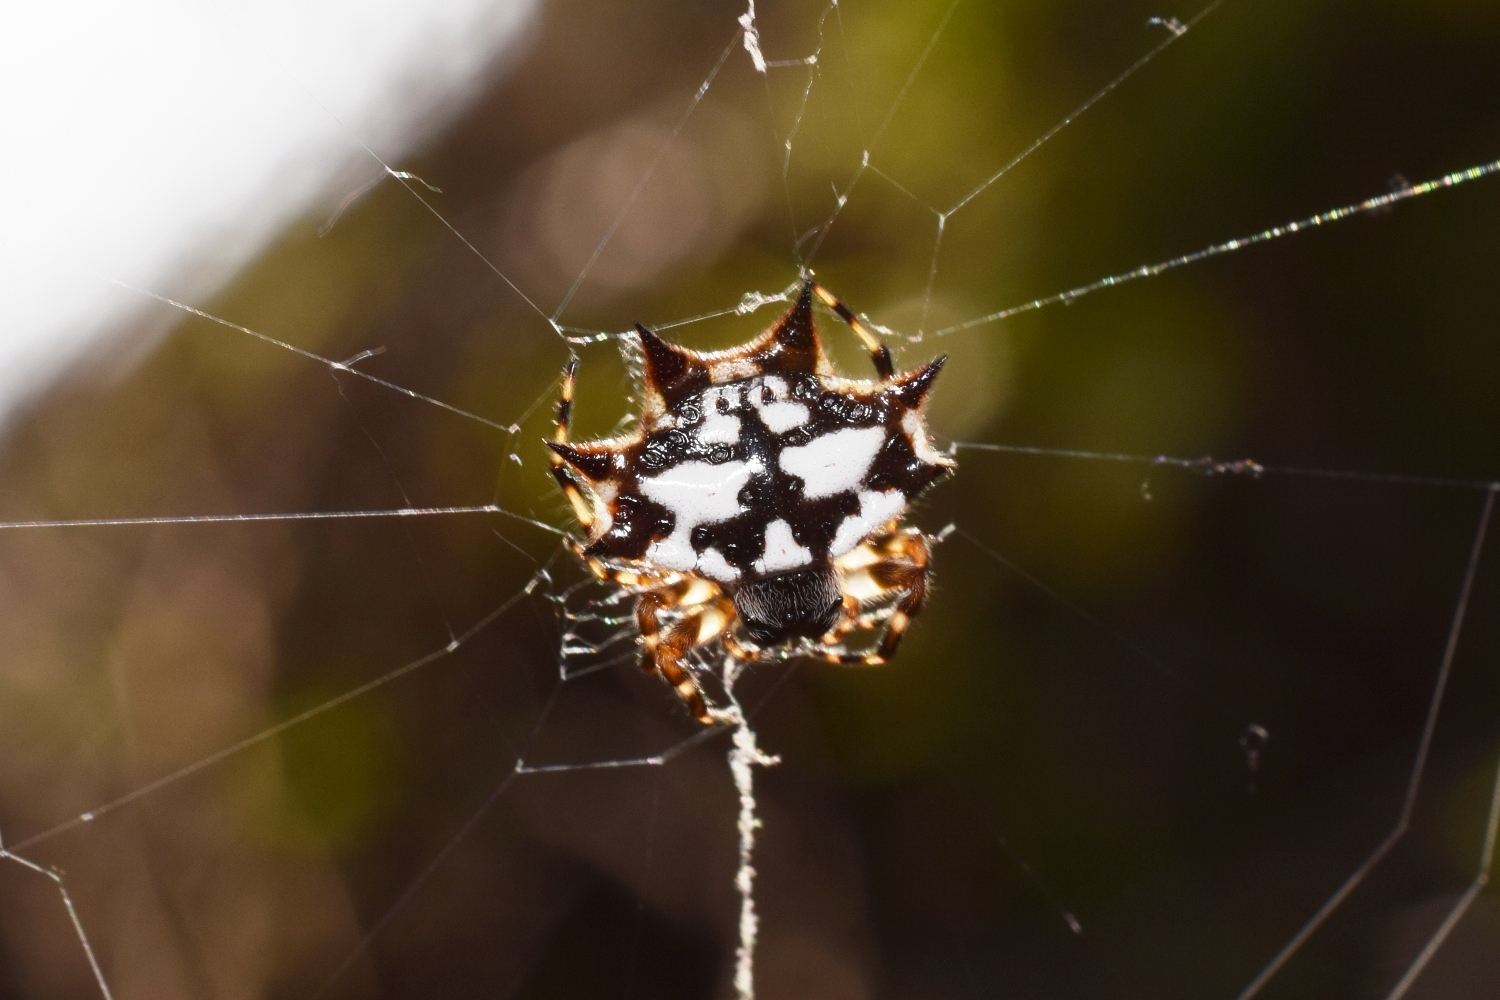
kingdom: Animalia
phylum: Arthropoda
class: Arachnida
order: Araneae
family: Araneidae
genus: Gasteracantha
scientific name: Gasteracantha kuhli
